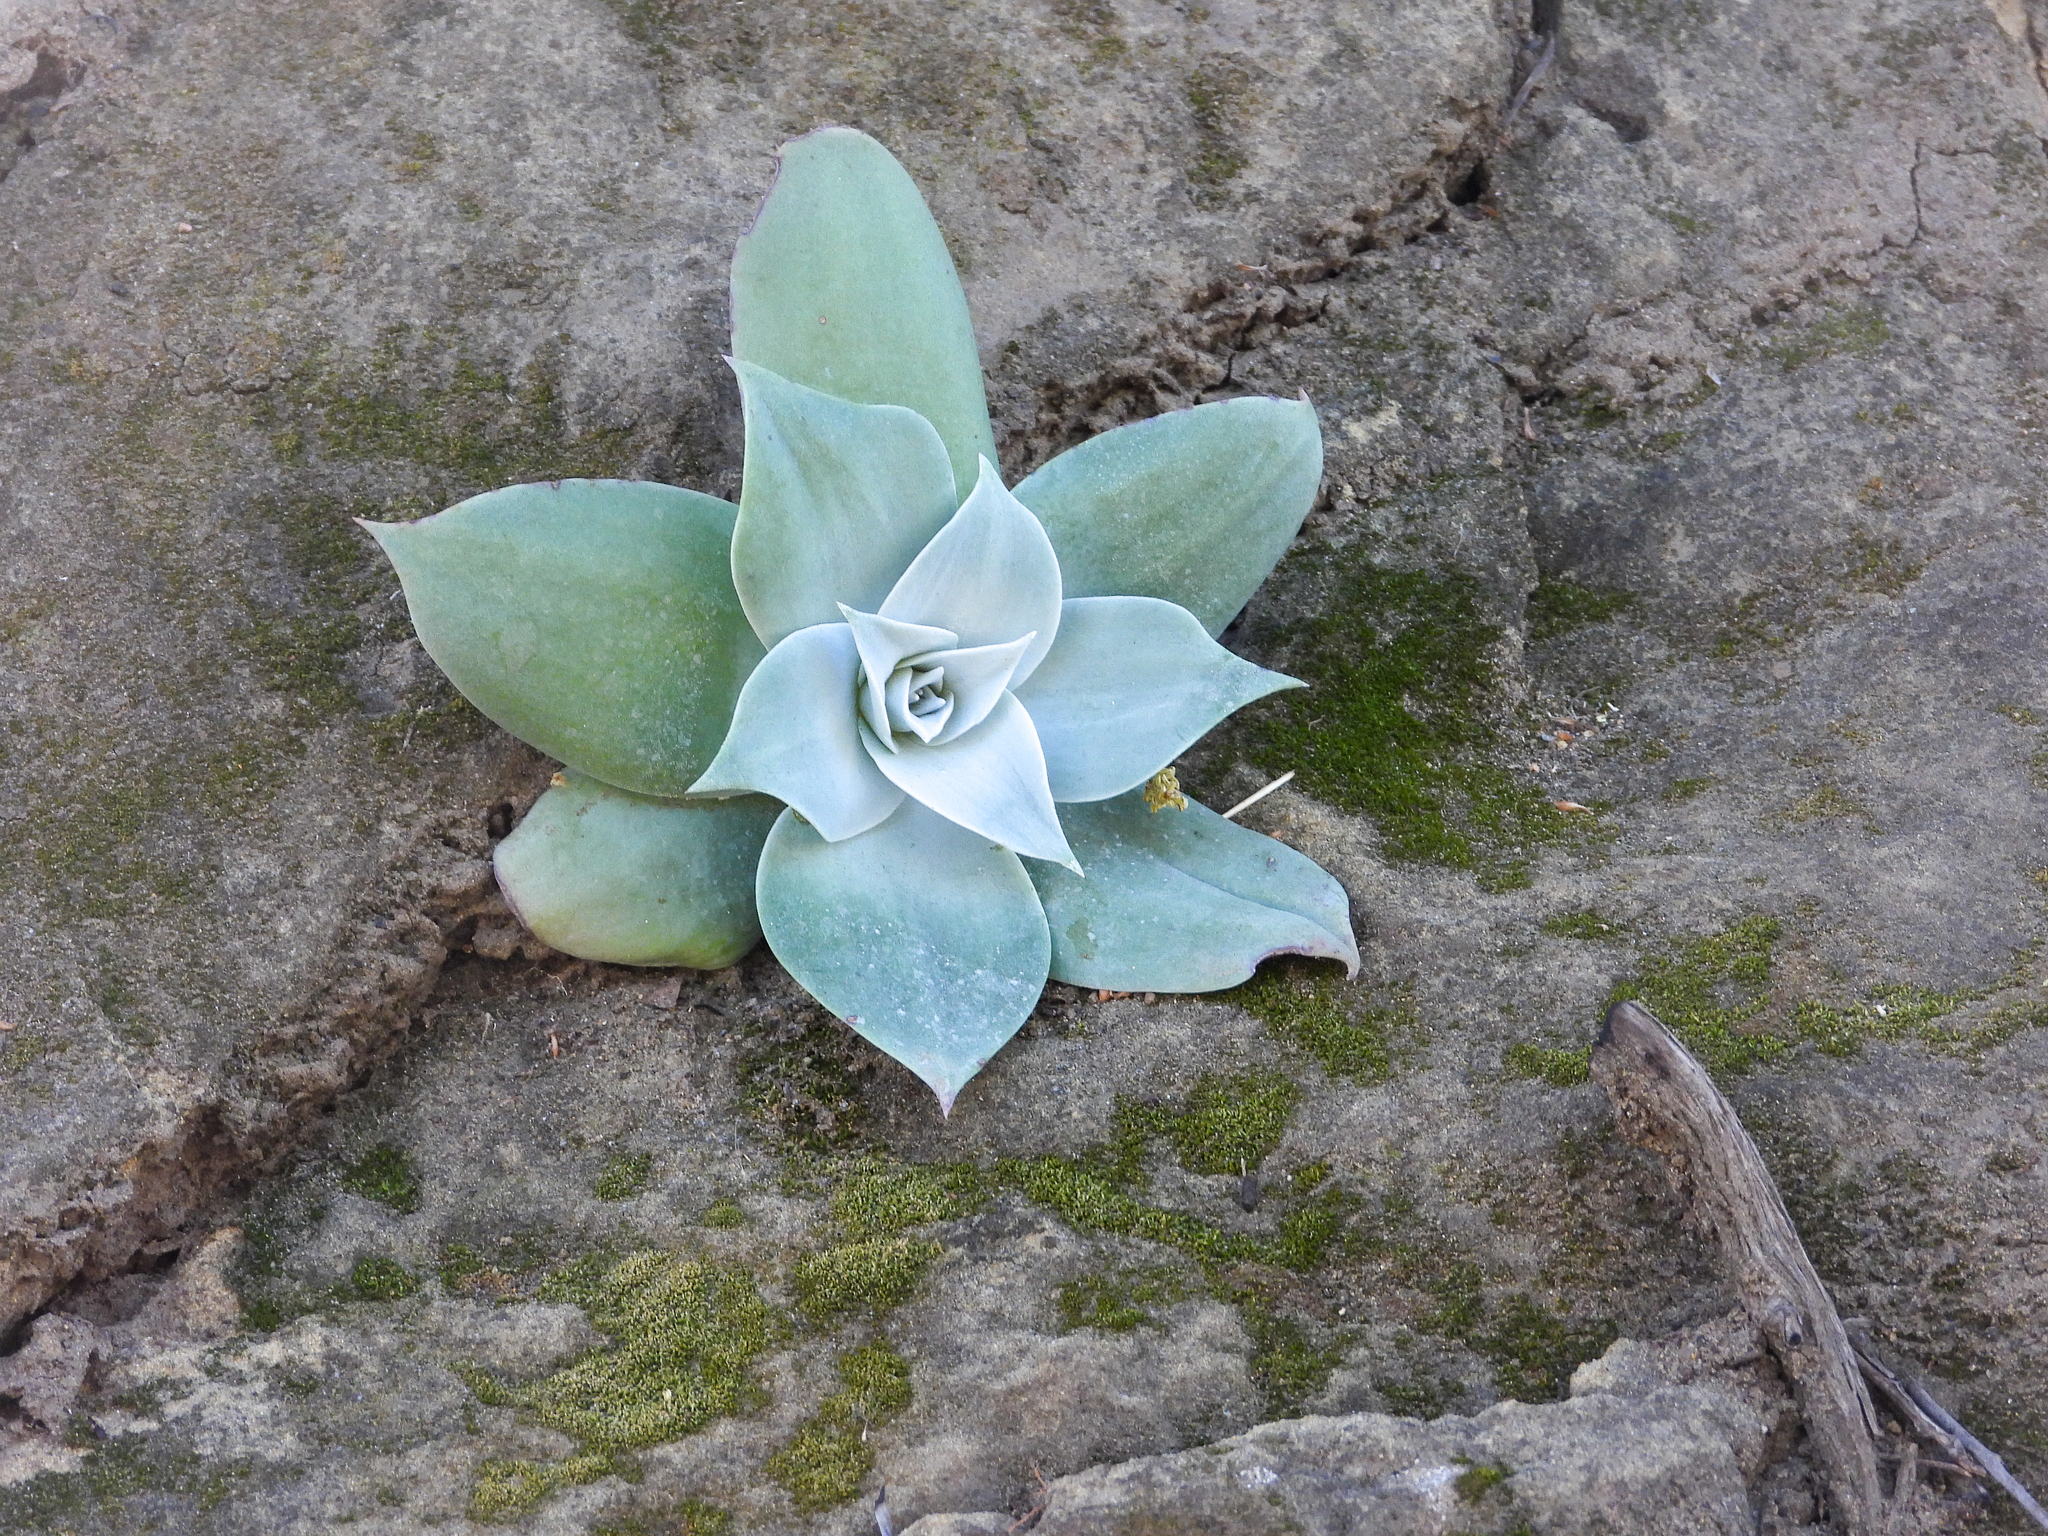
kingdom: Plantae
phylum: Tracheophyta
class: Magnoliopsida
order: Saxifragales
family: Crassulaceae
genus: Dudleya
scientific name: Dudleya pulverulenta
